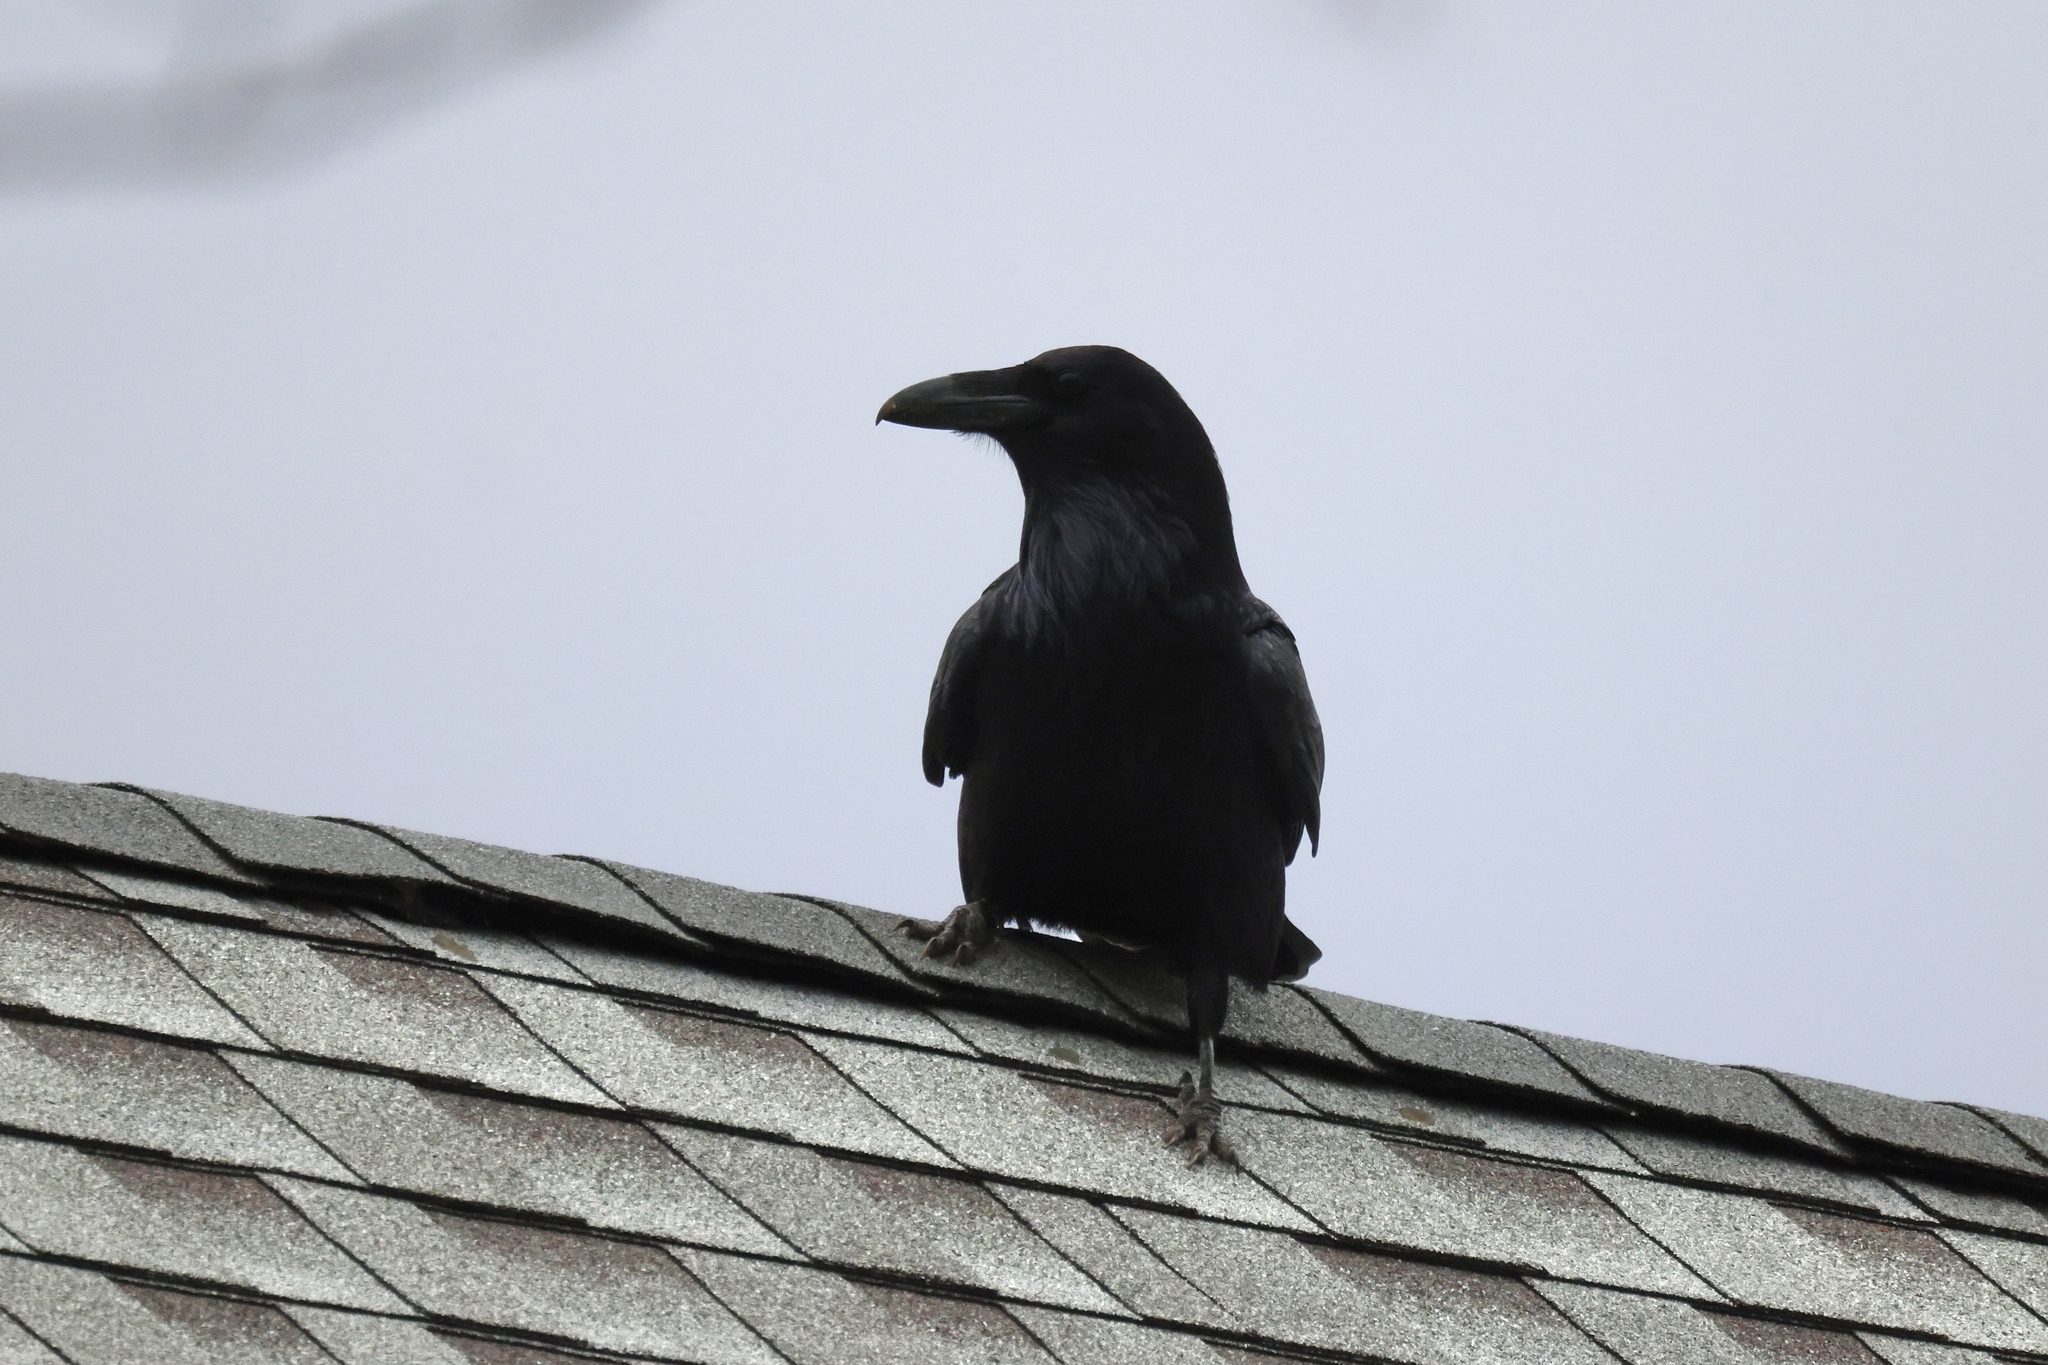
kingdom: Animalia
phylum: Chordata
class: Aves
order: Passeriformes
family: Corvidae
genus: Corvus
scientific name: Corvus corax
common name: Common raven
